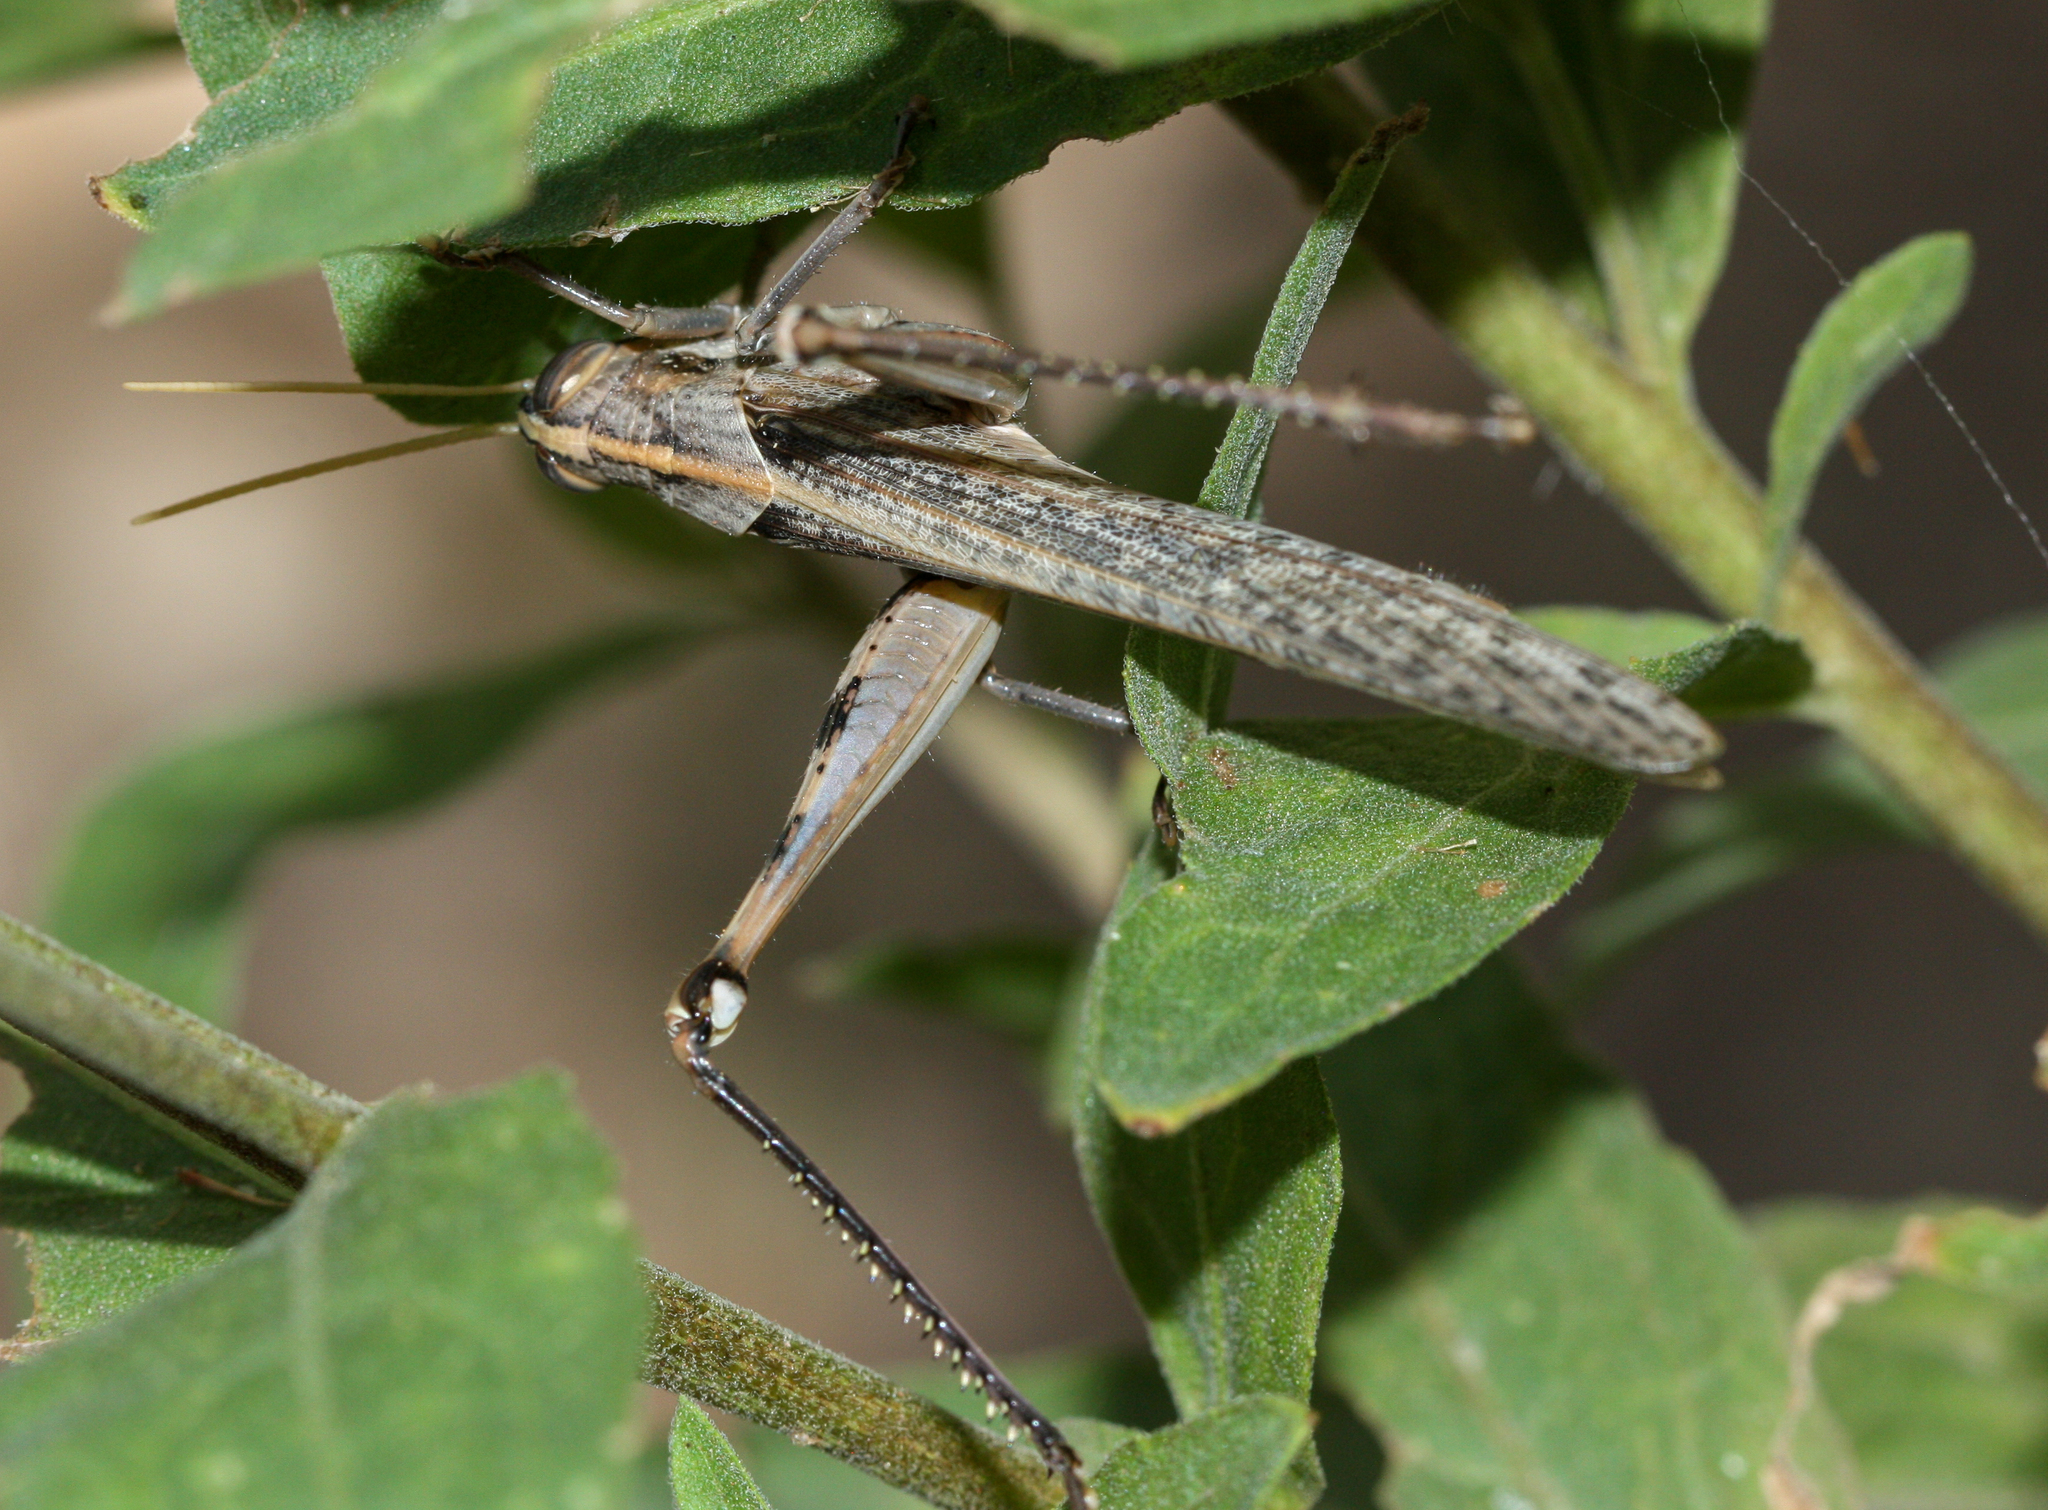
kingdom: Animalia
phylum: Arthropoda
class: Insecta
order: Orthoptera
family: Acrididae
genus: Schistocerca
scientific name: Schistocerca nitens
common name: Vagrant grasshopper
